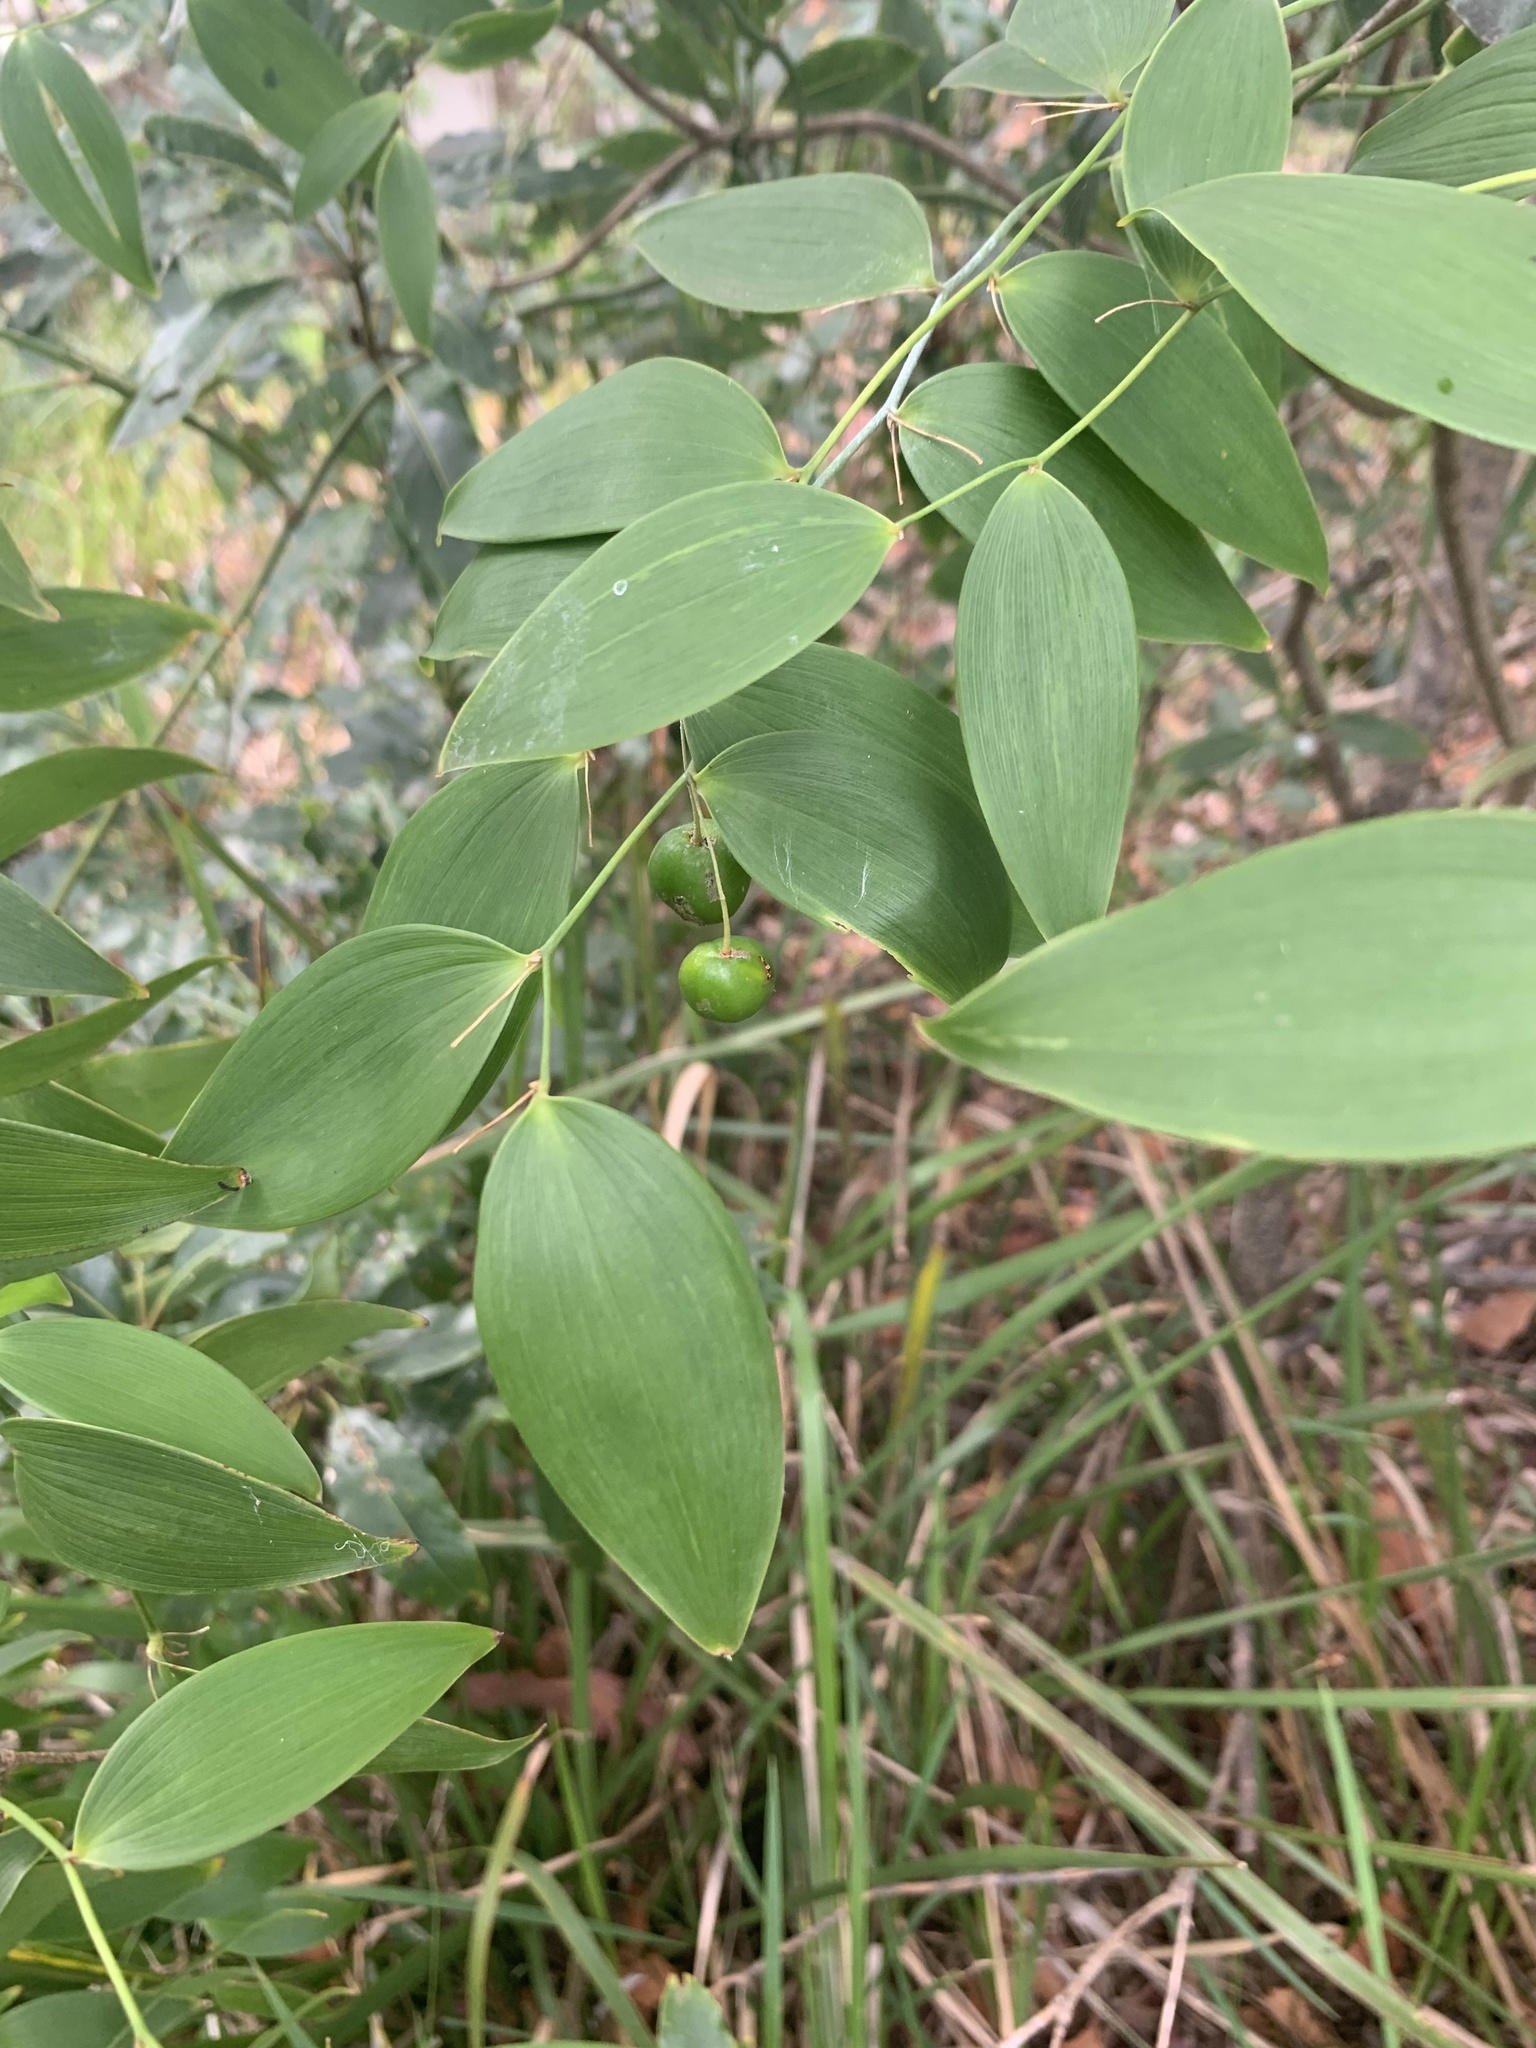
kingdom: Plantae
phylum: Tracheophyta
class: Liliopsida
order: Asparagales
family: Asparagaceae
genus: Eustrephus
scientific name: Eustrephus latifolius
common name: Orangevine
